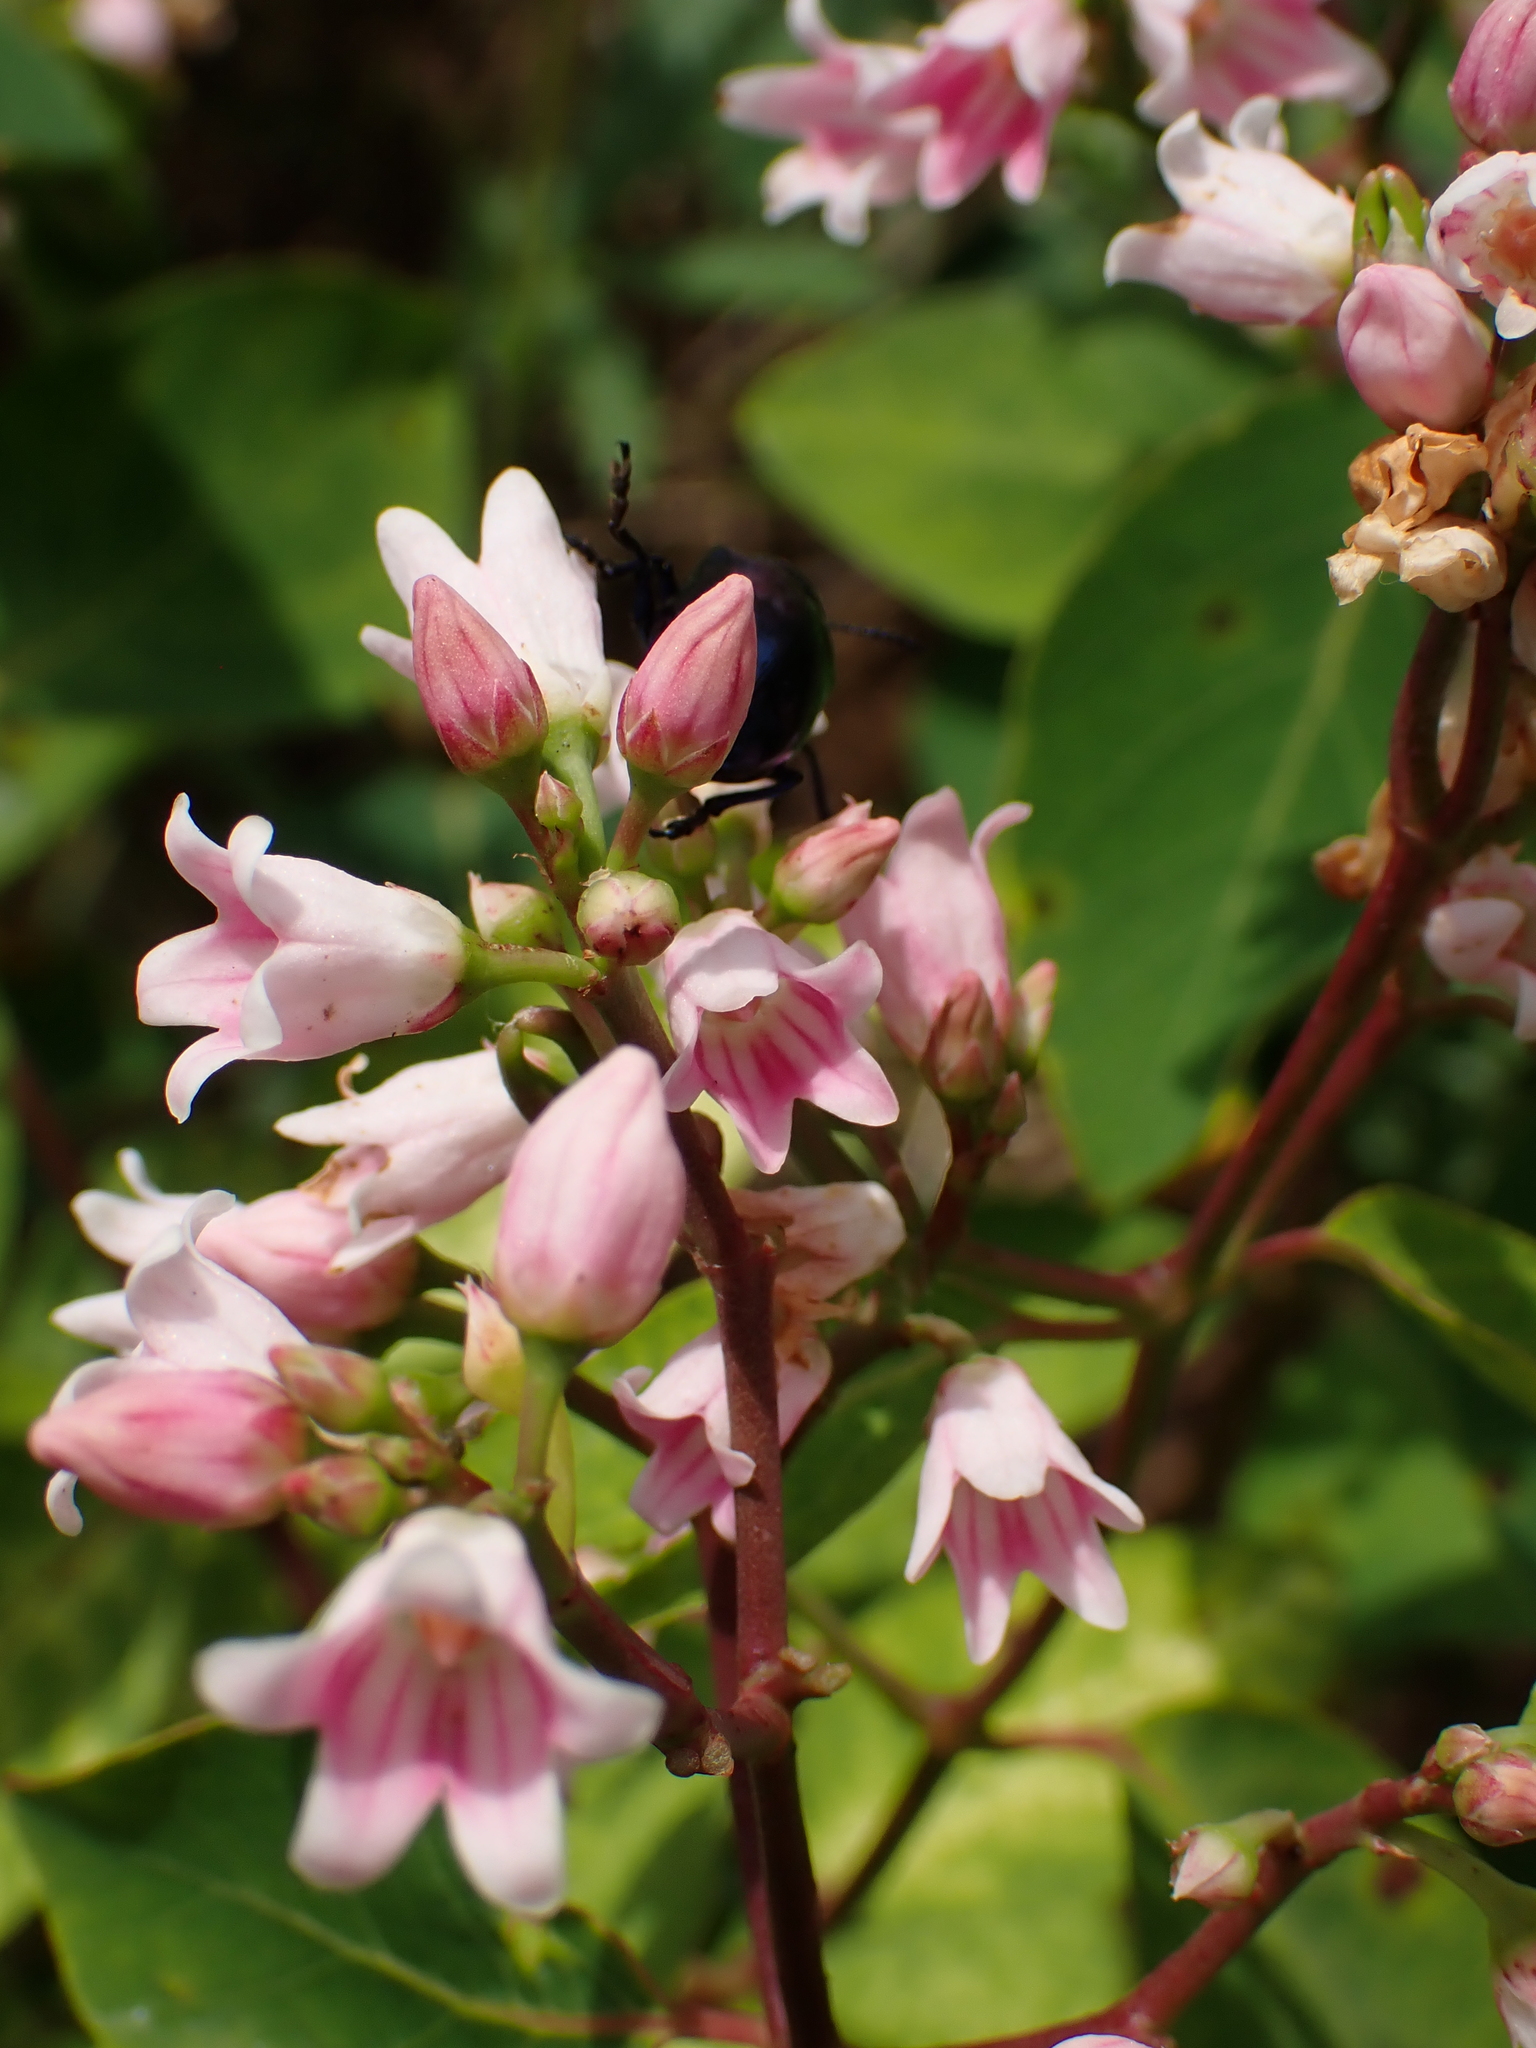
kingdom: Plantae
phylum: Tracheophyta
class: Magnoliopsida
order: Gentianales
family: Apocynaceae
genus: Apocynum
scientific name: Apocynum androsaemifolium
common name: Spreading dogbane
